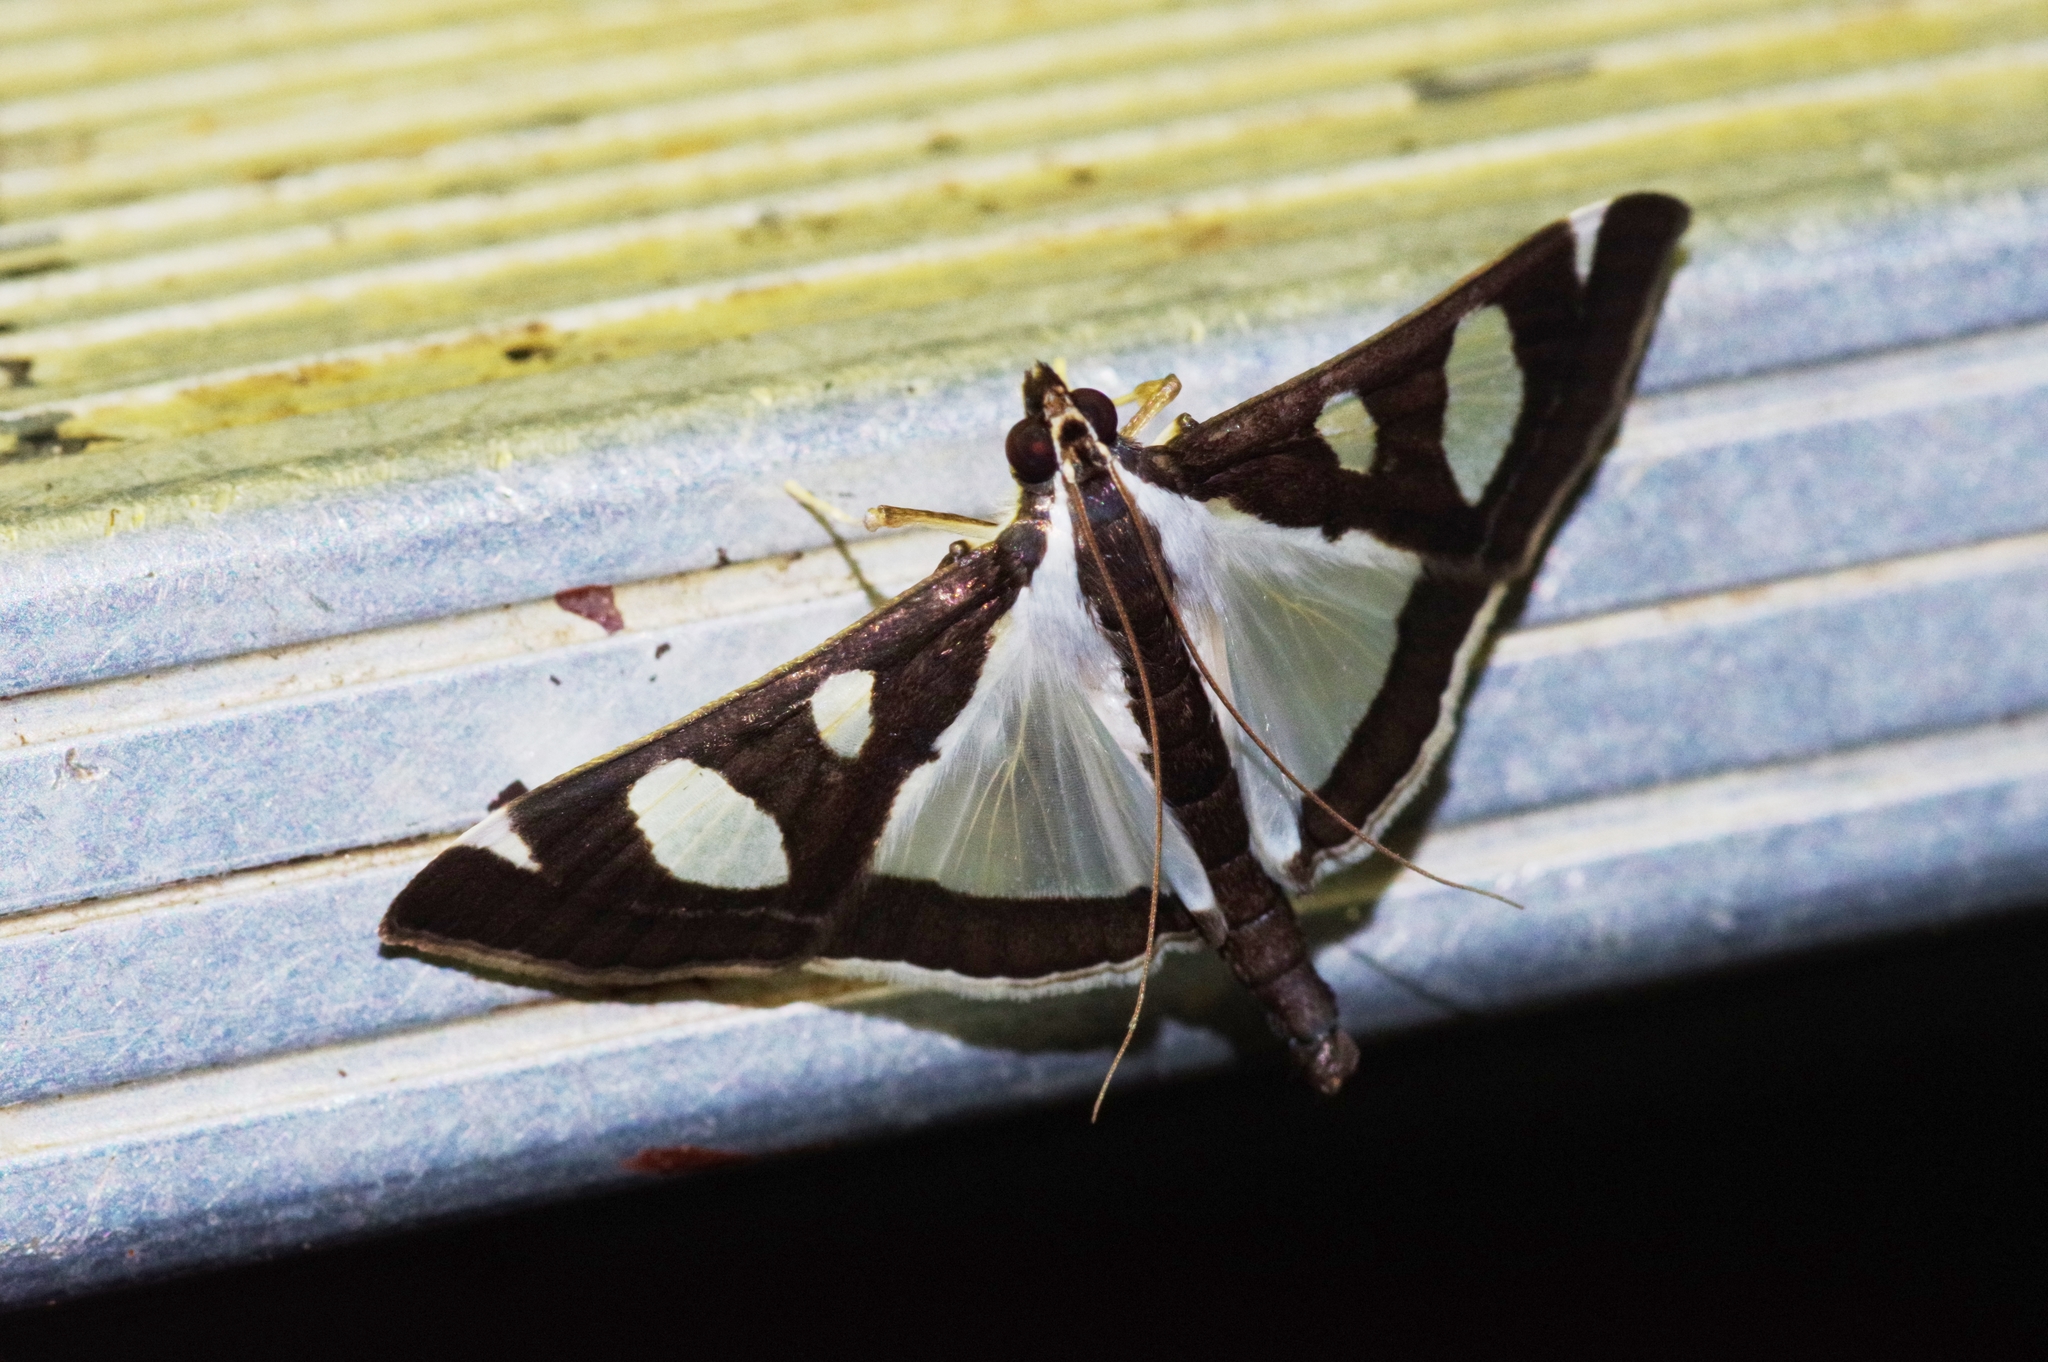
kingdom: Animalia
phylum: Arthropoda
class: Insecta
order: Lepidoptera
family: Crambidae
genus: Glyphodes
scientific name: Glyphodes actorionalis
